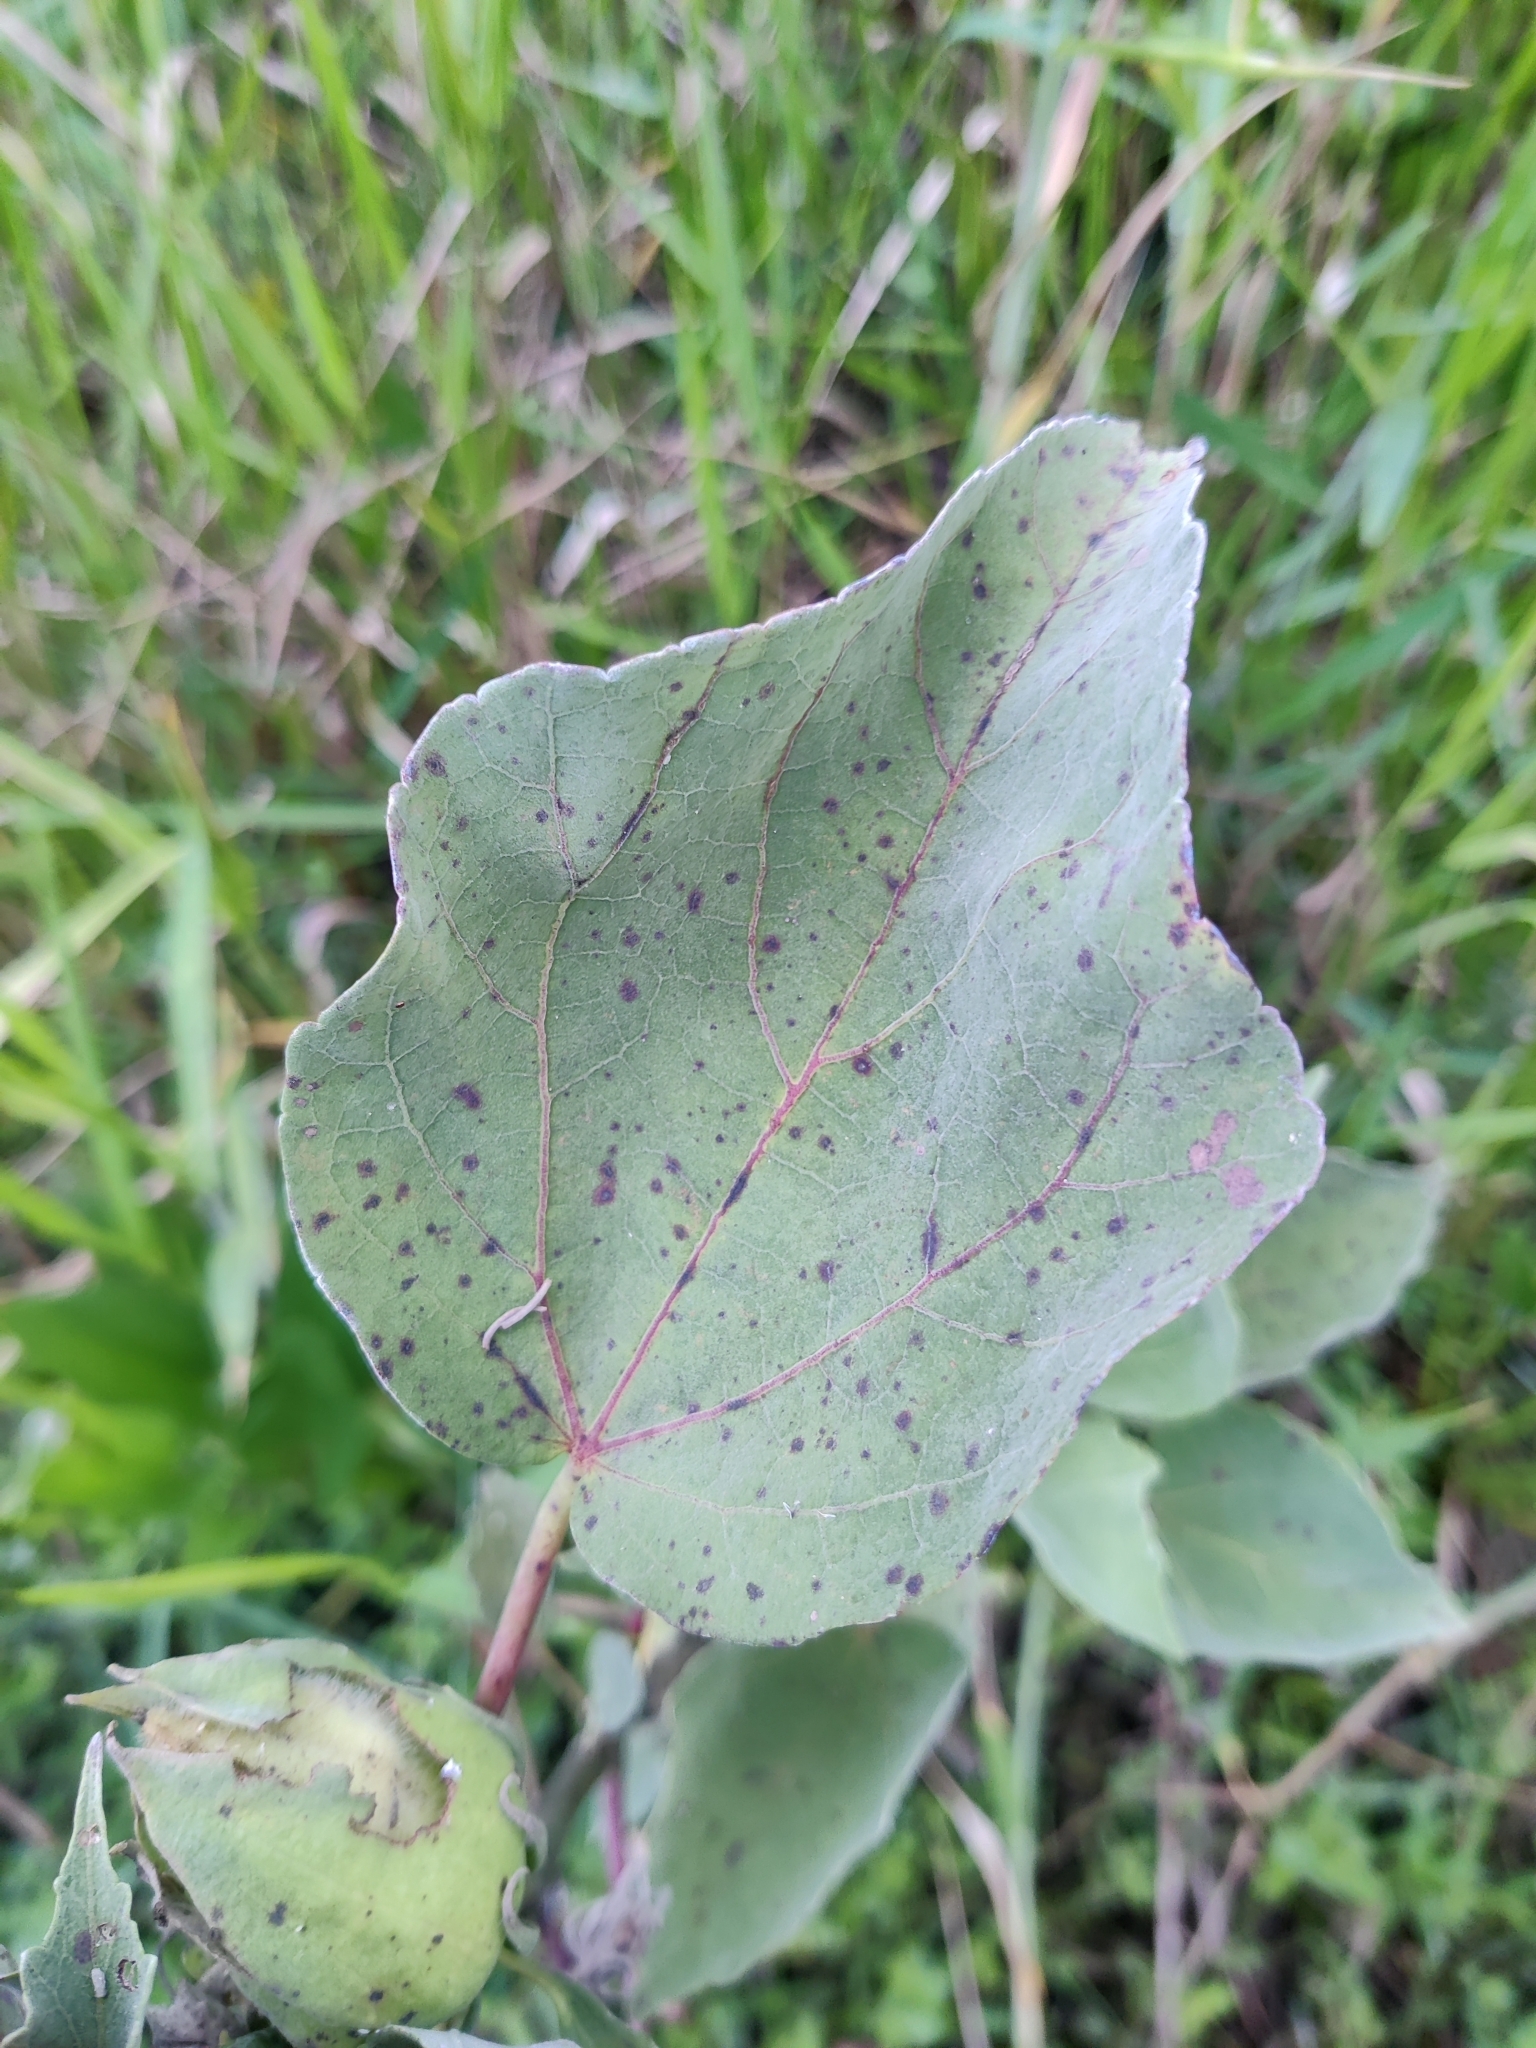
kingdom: Plantae
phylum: Tracheophyta
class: Magnoliopsida
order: Malvales
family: Malvaceae
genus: Hibiscus
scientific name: Hibiscus grandiflorus
